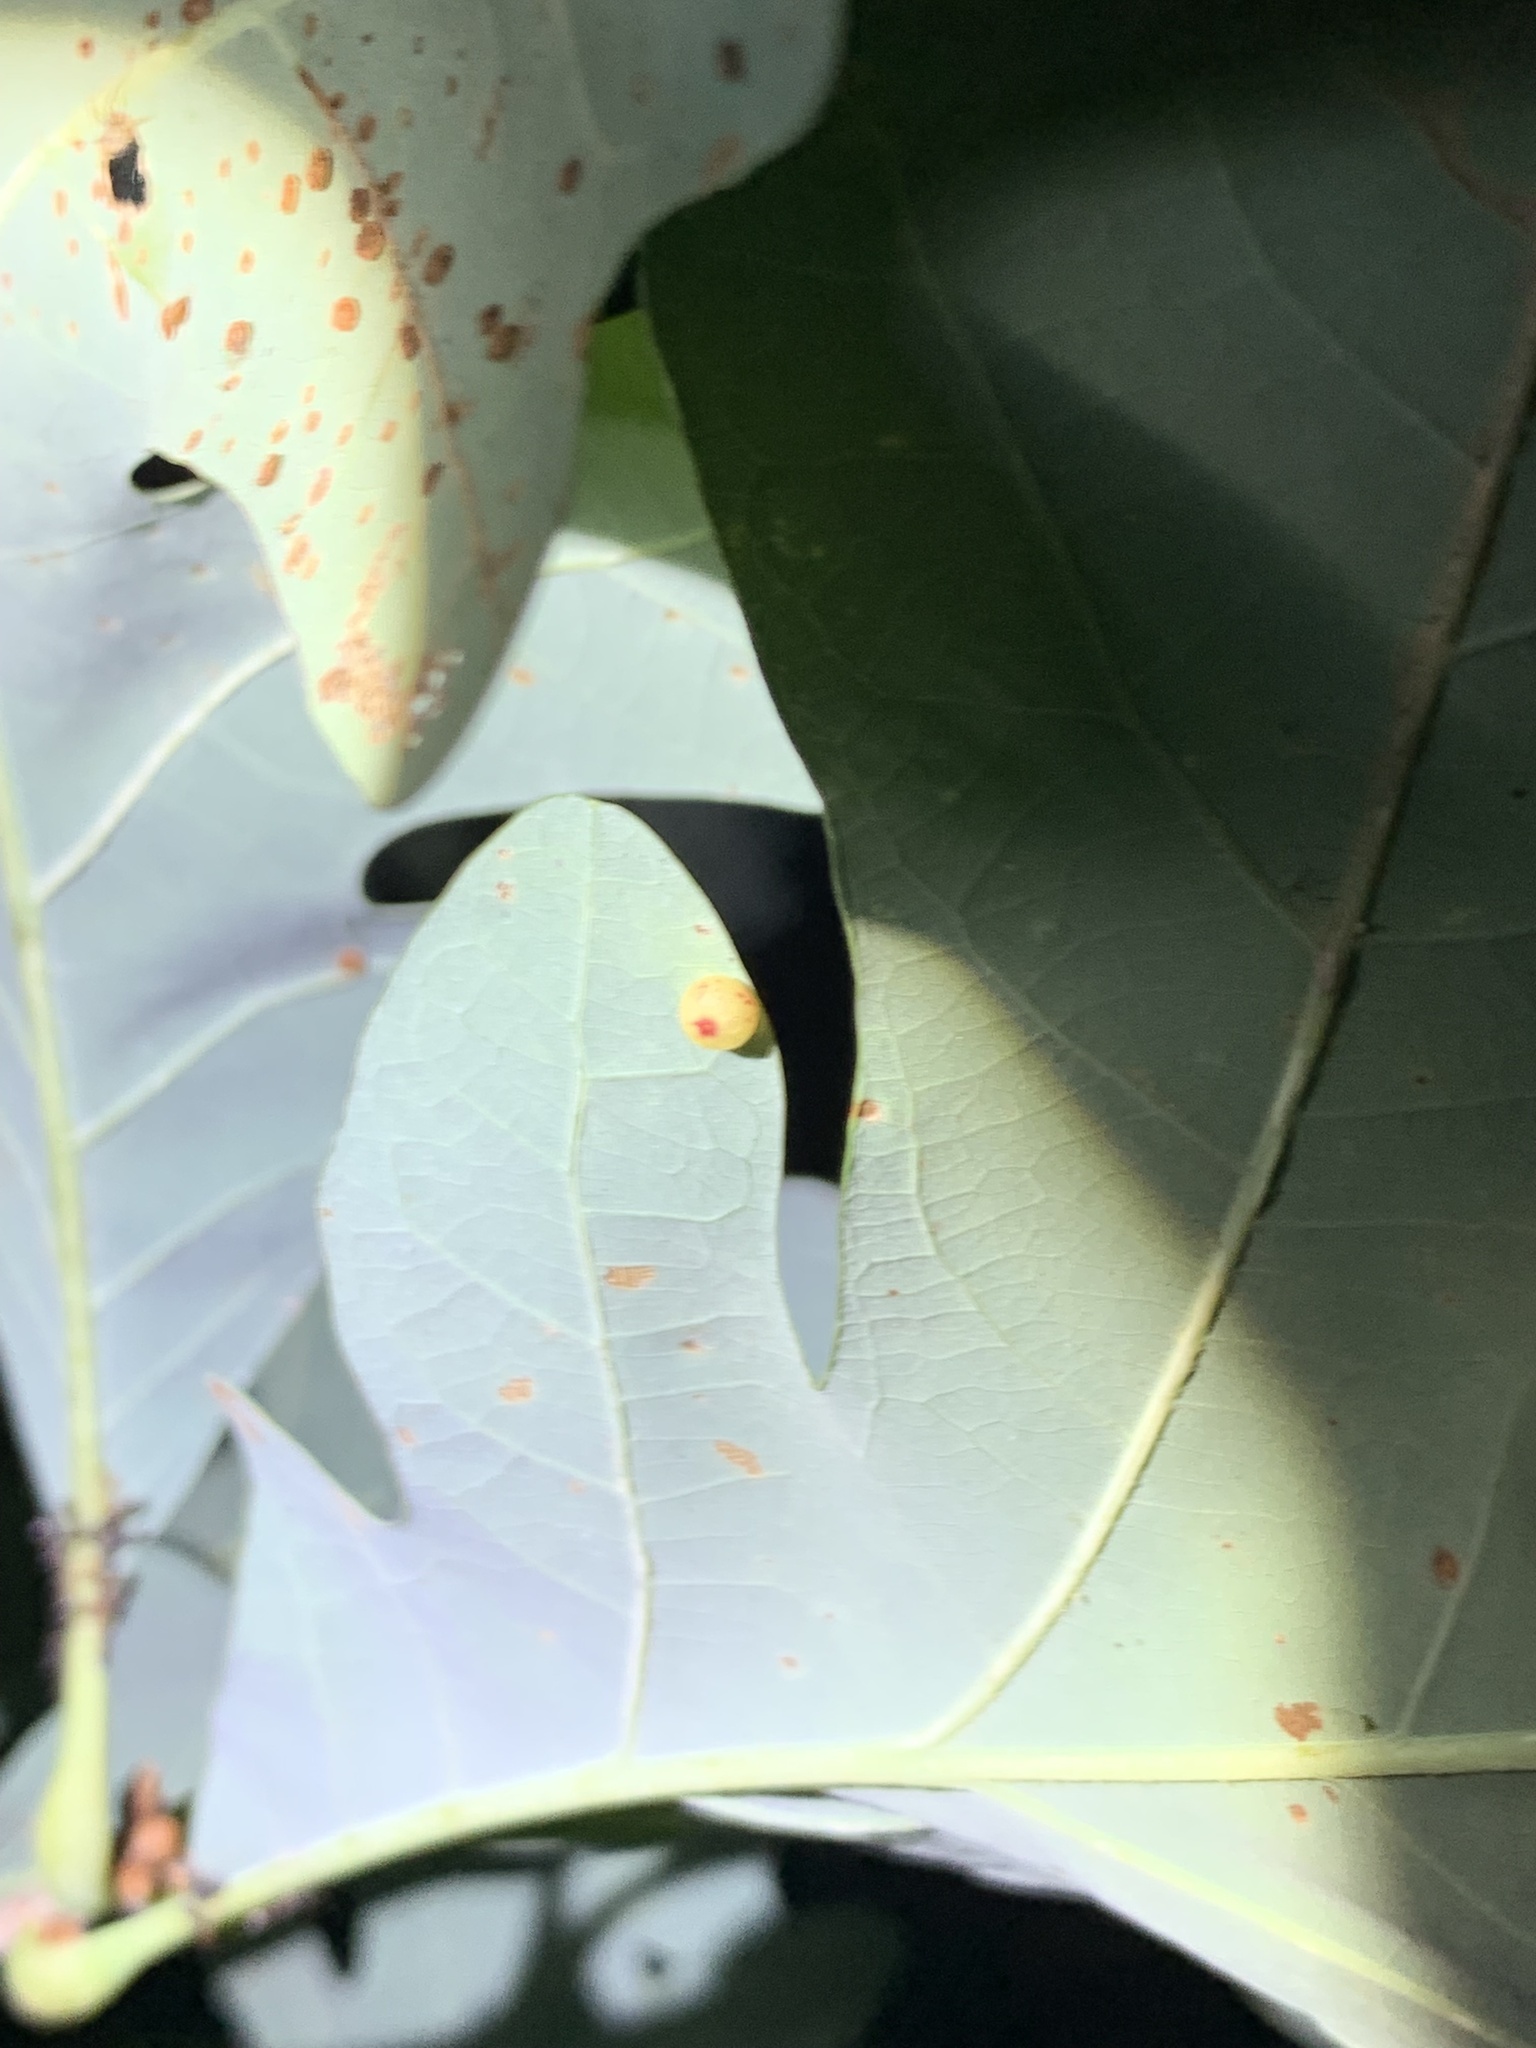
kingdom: Animalia
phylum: Arthropoda
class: Insecta
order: Hymenoptera
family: Cynipidae
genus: Andricus
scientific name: Andricus
